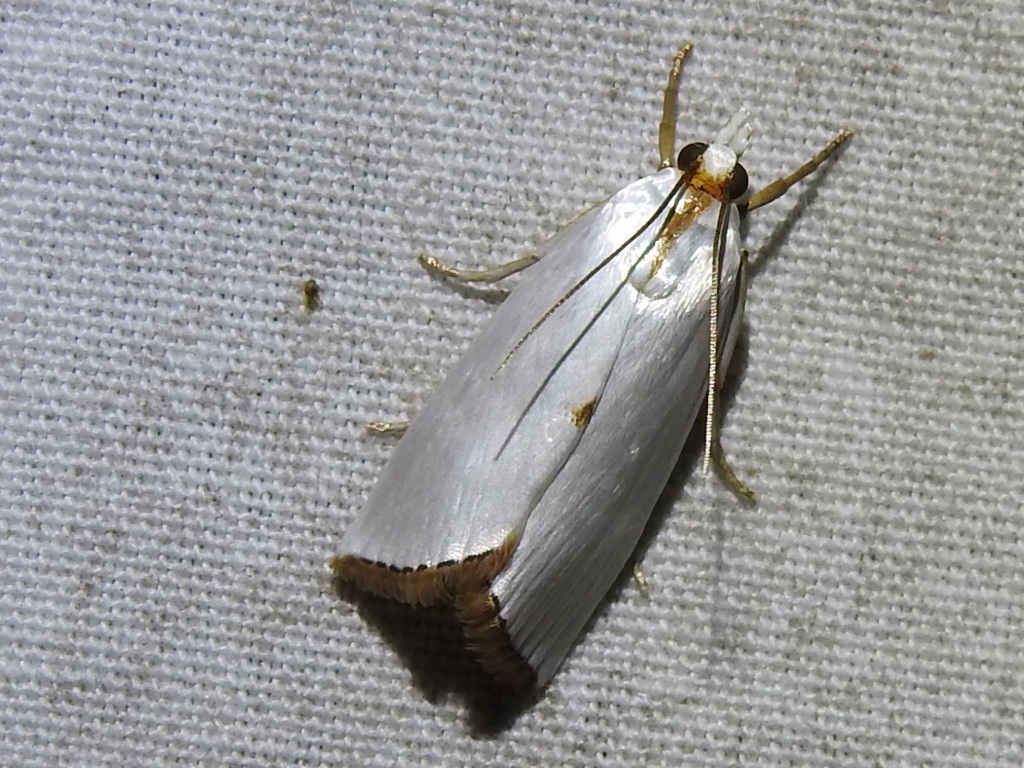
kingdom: Animalia
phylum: Arthropoda
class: Insecta
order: Lepidoptera
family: Crambidae
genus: Argyria
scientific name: Argyria nivalis
